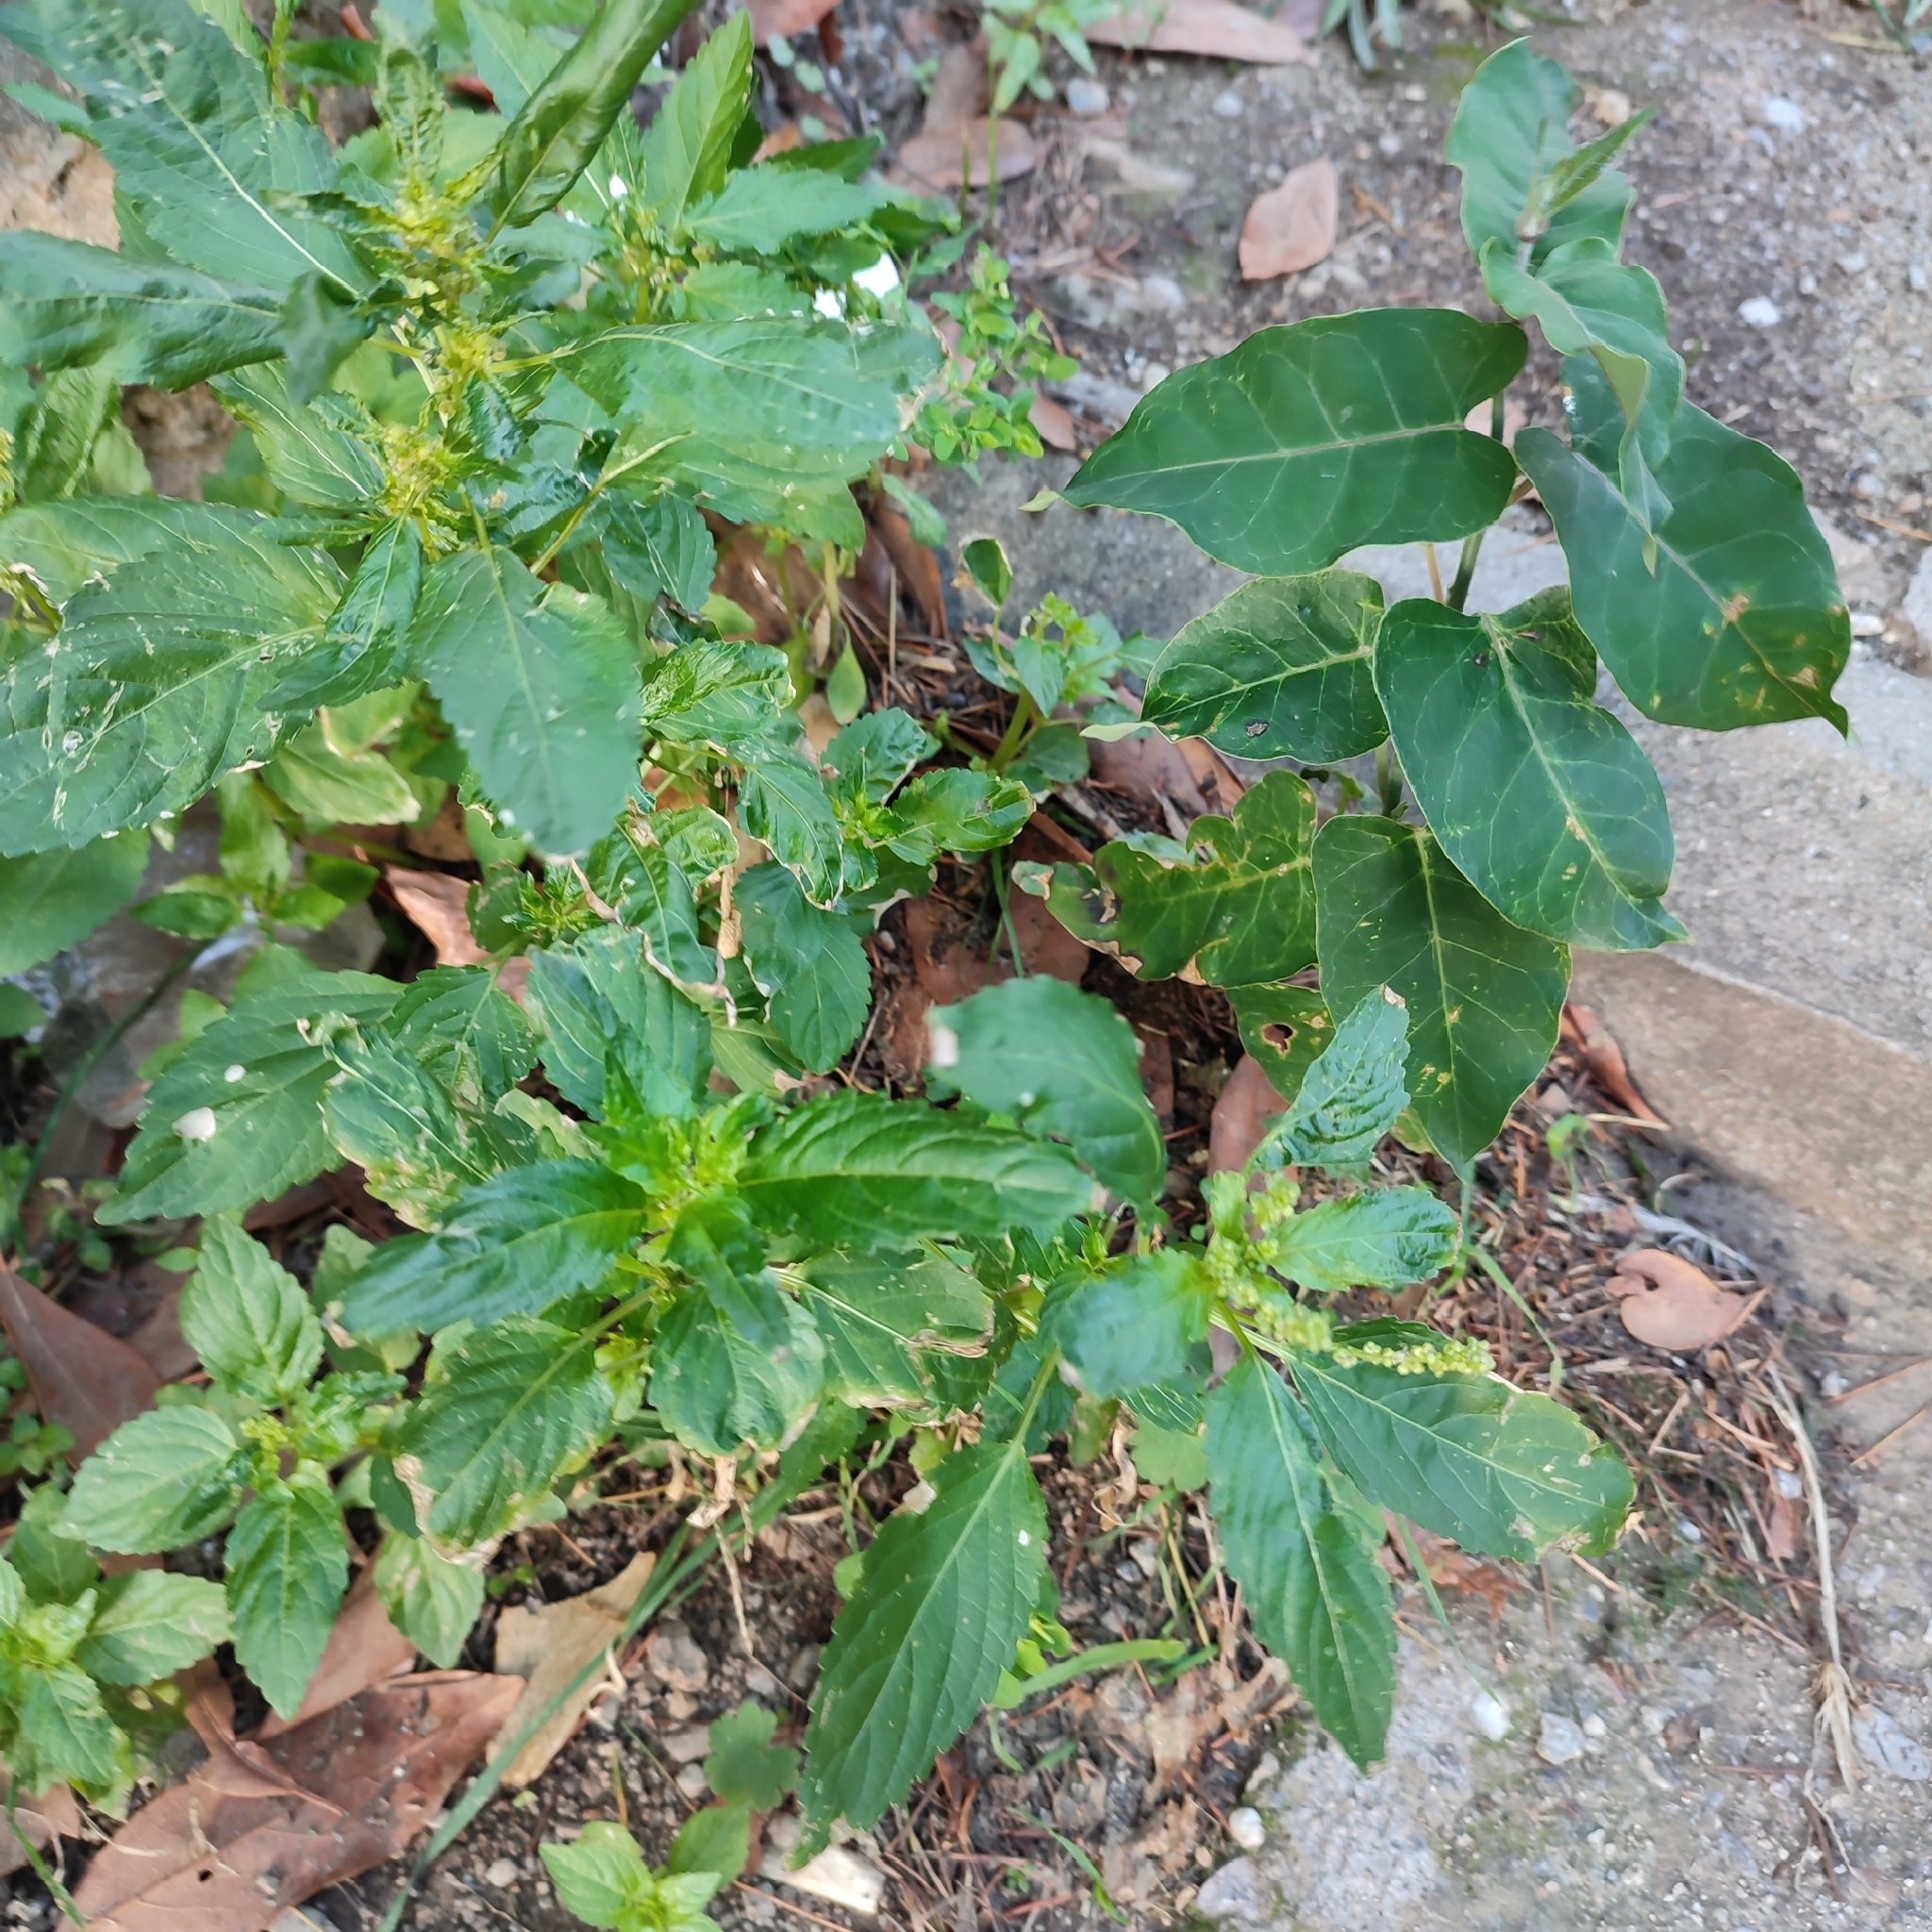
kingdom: Plantae
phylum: Tracheophyta
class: Magnoliopsida
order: Malpighiales
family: Euphorbiaceae
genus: Mercurialis
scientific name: Mercurialis annua
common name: Annual mercury
